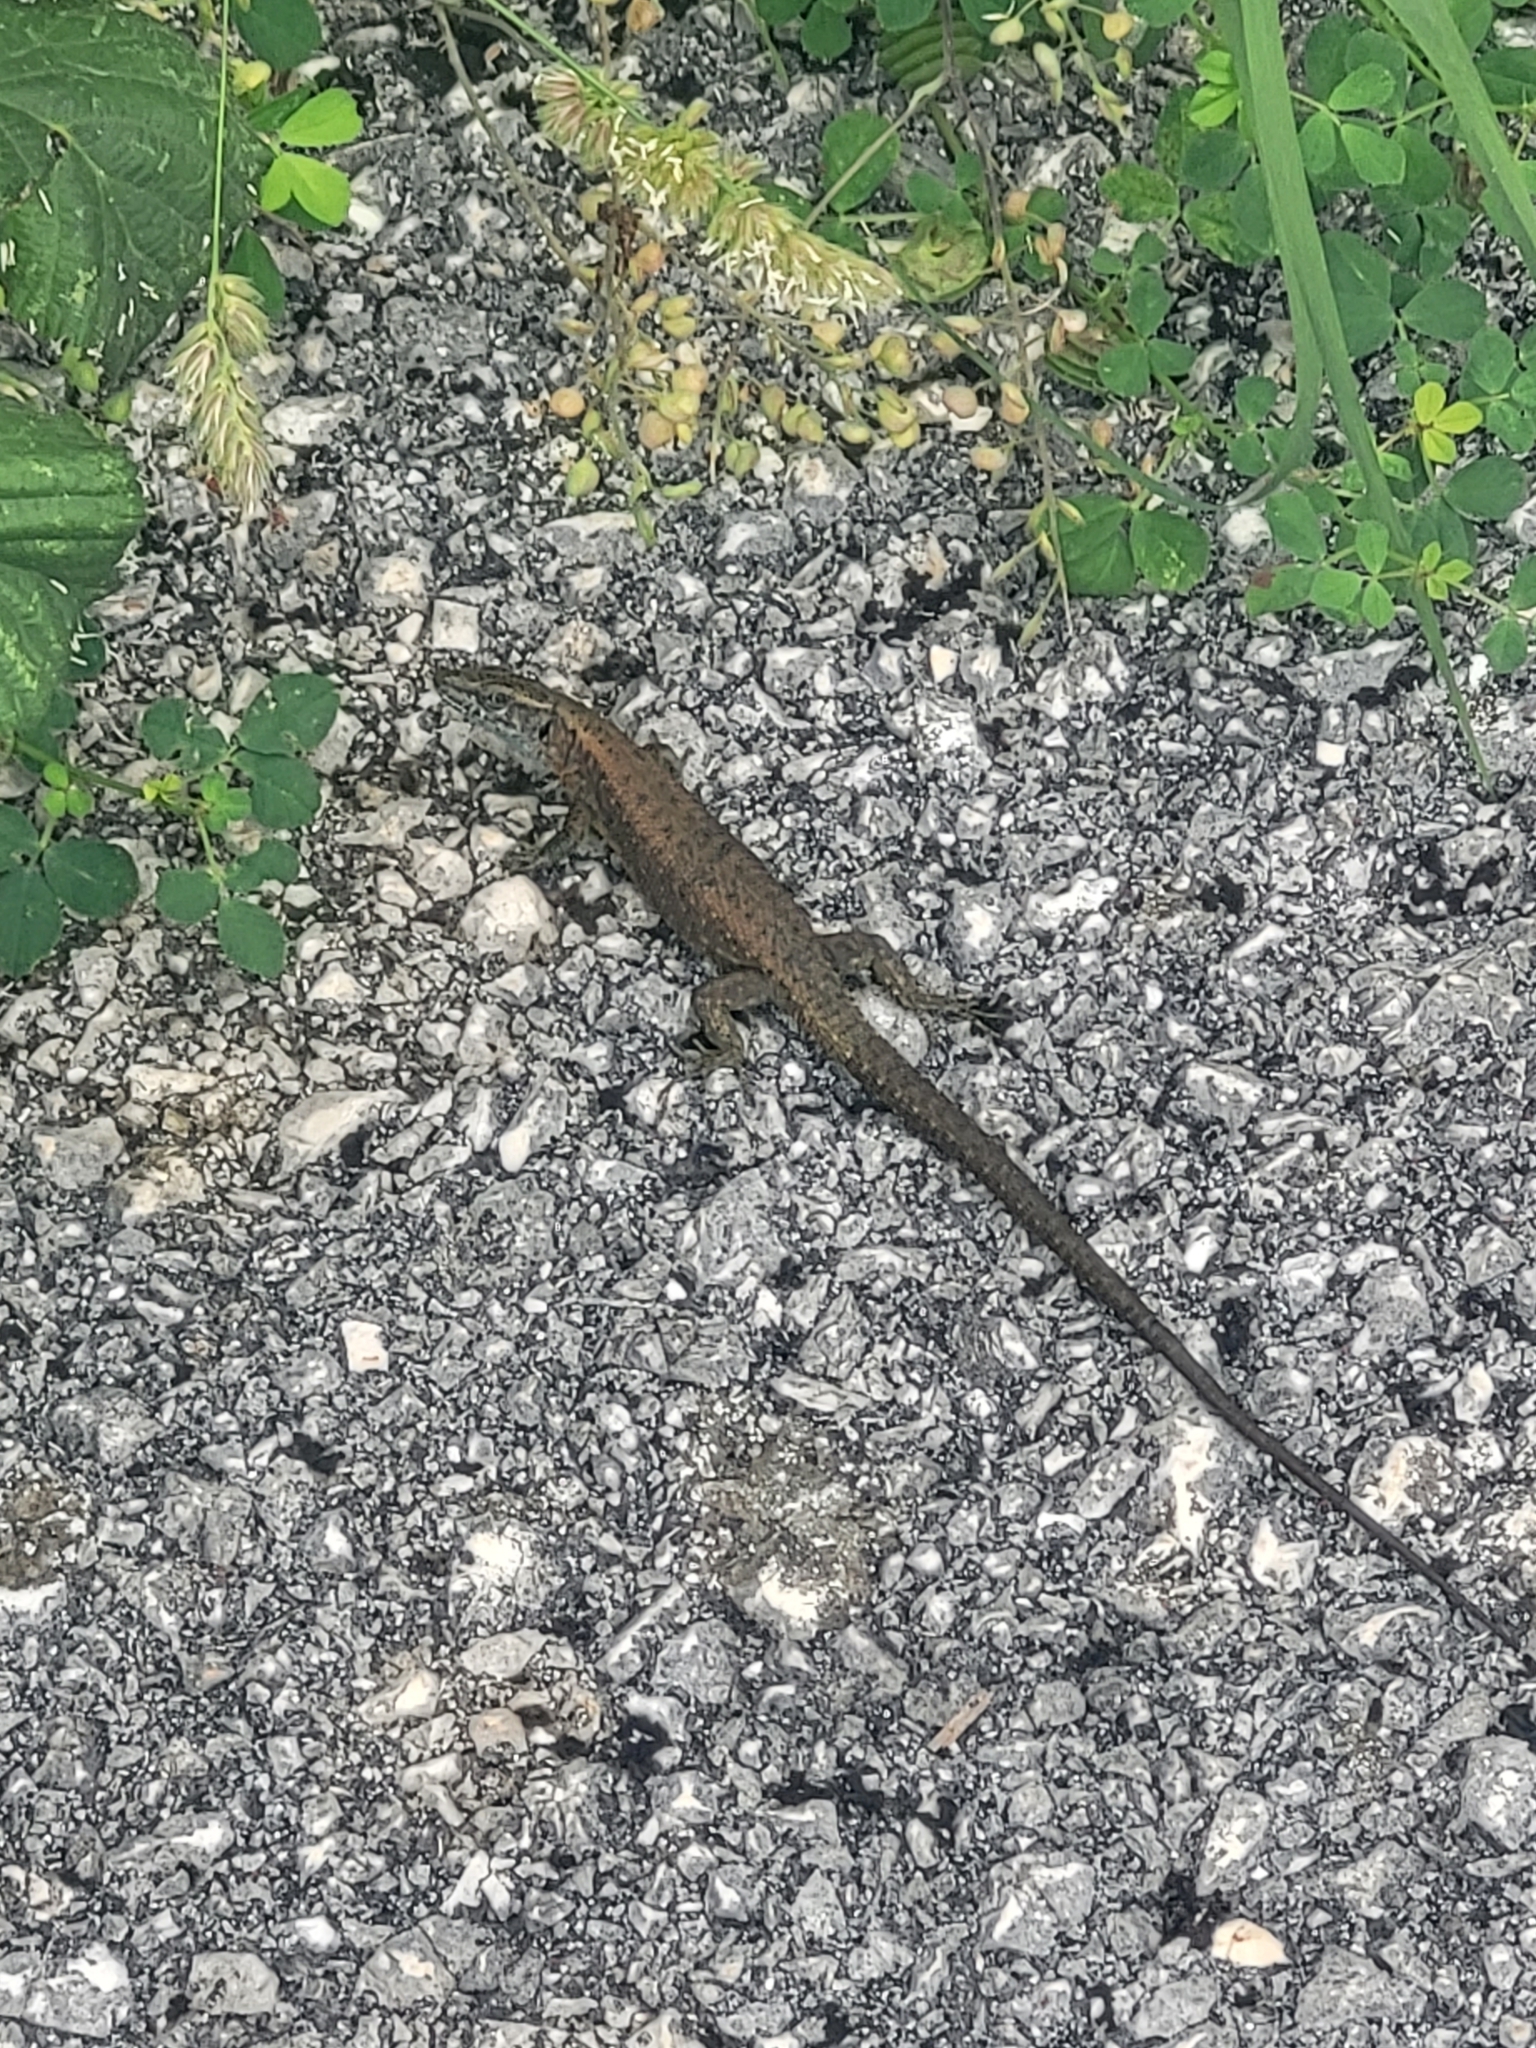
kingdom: Animalia
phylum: Chordata
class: Squamata
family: Lacertidae
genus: Algyroides
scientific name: Algyroides nigropunctatus
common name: Blue-throated keeled lizard
